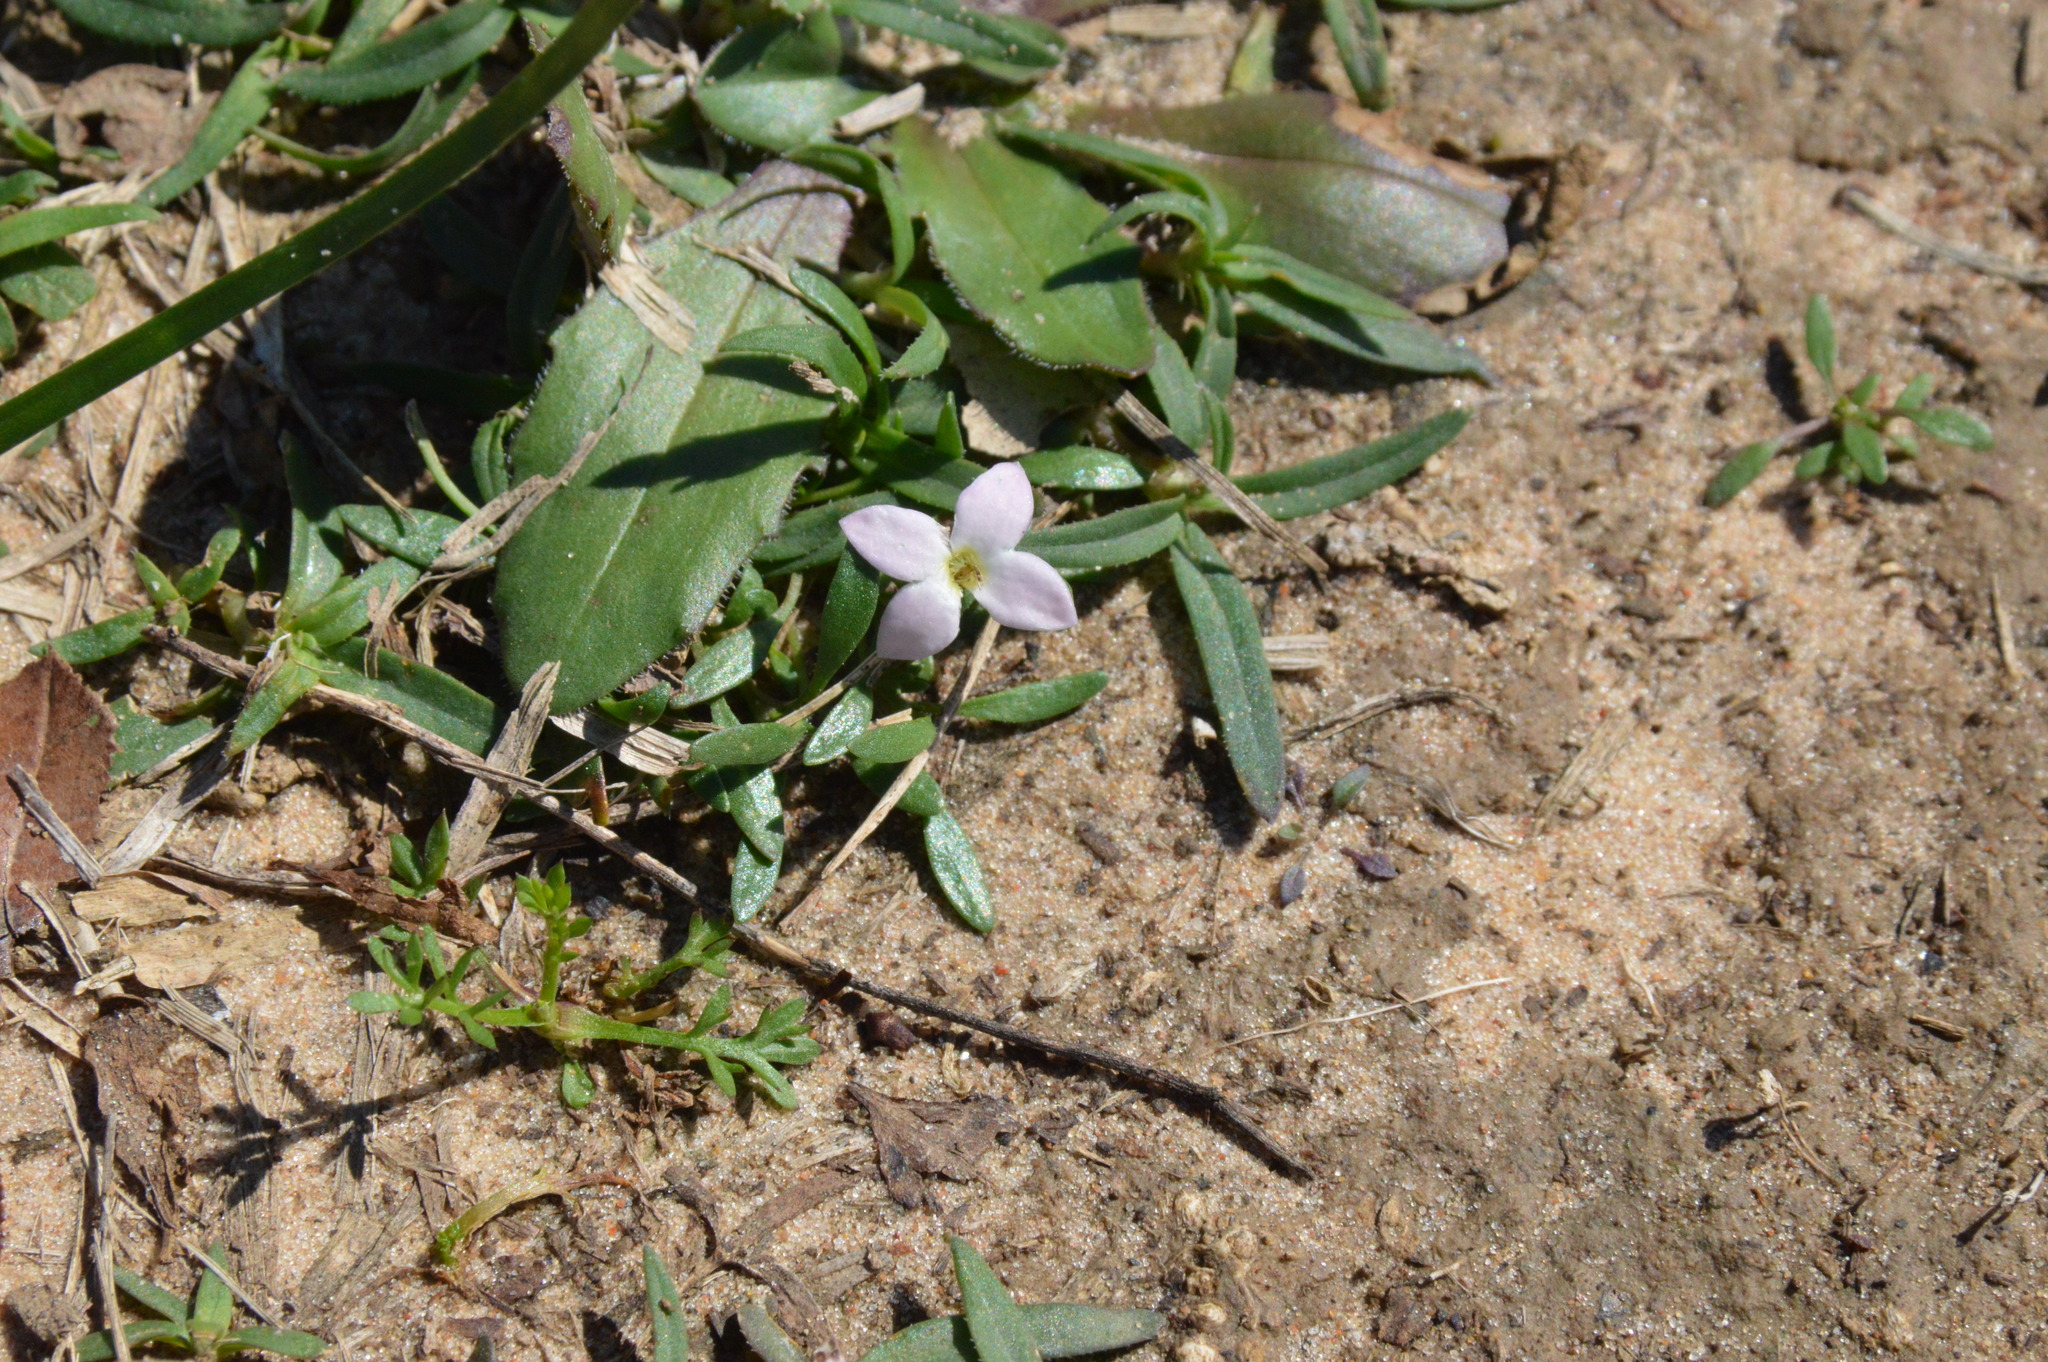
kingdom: Plantae
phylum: Tracheophyta
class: Magnoliopsida
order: Gentianales
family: Rubiaceae
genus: Houstonia
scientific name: Houstonia rosea
